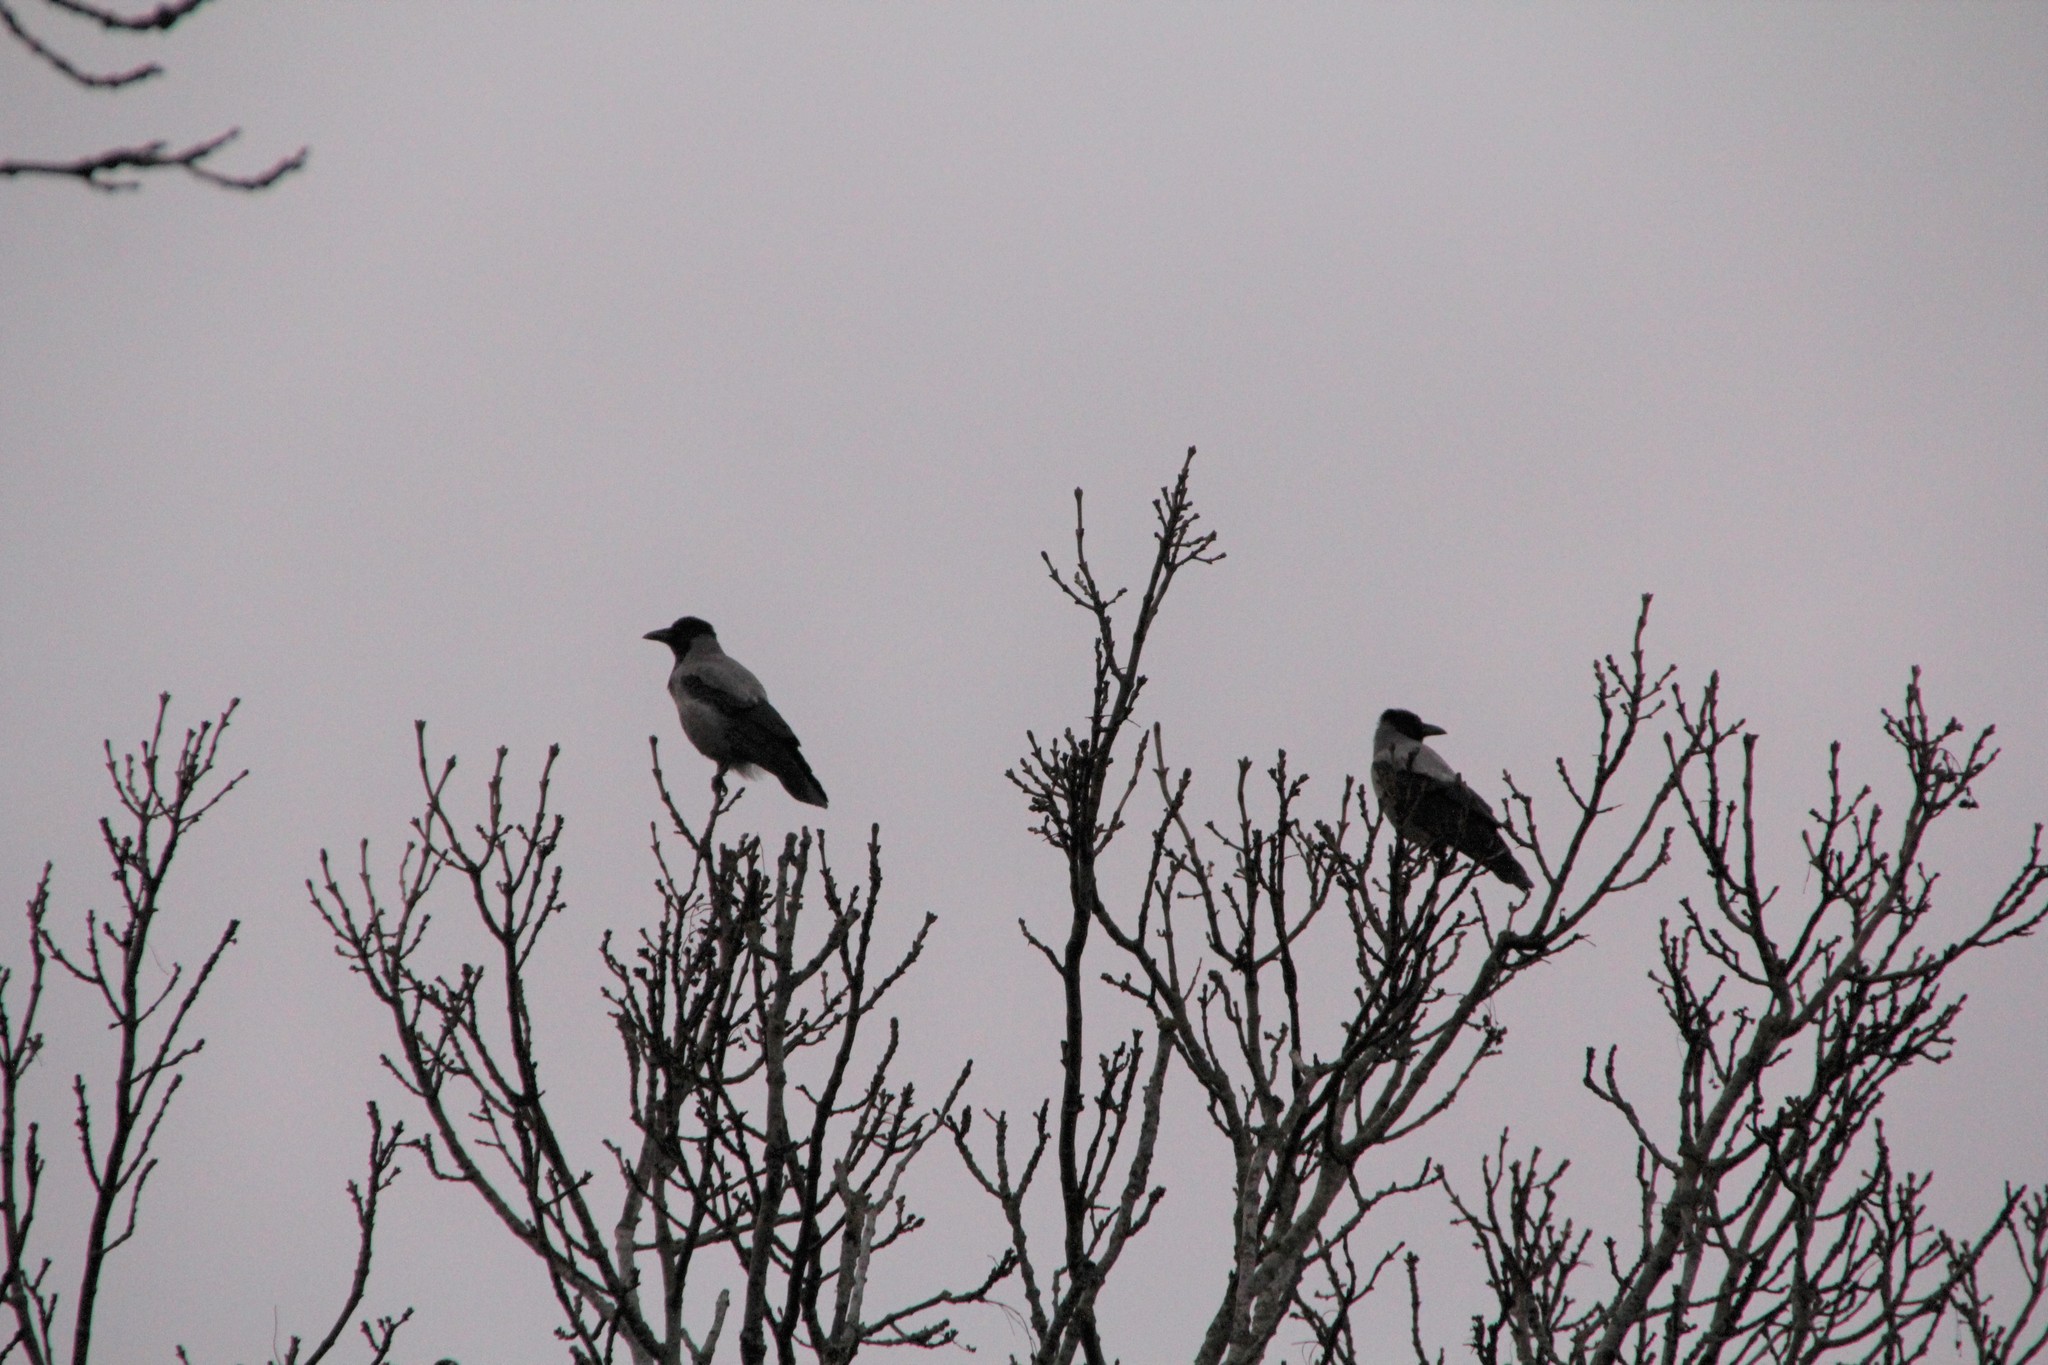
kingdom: Animalia
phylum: Chordata
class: Aves
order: Passeriformes
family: Corvidae
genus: Corvus
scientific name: Corvus cornix
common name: Hooded crow
